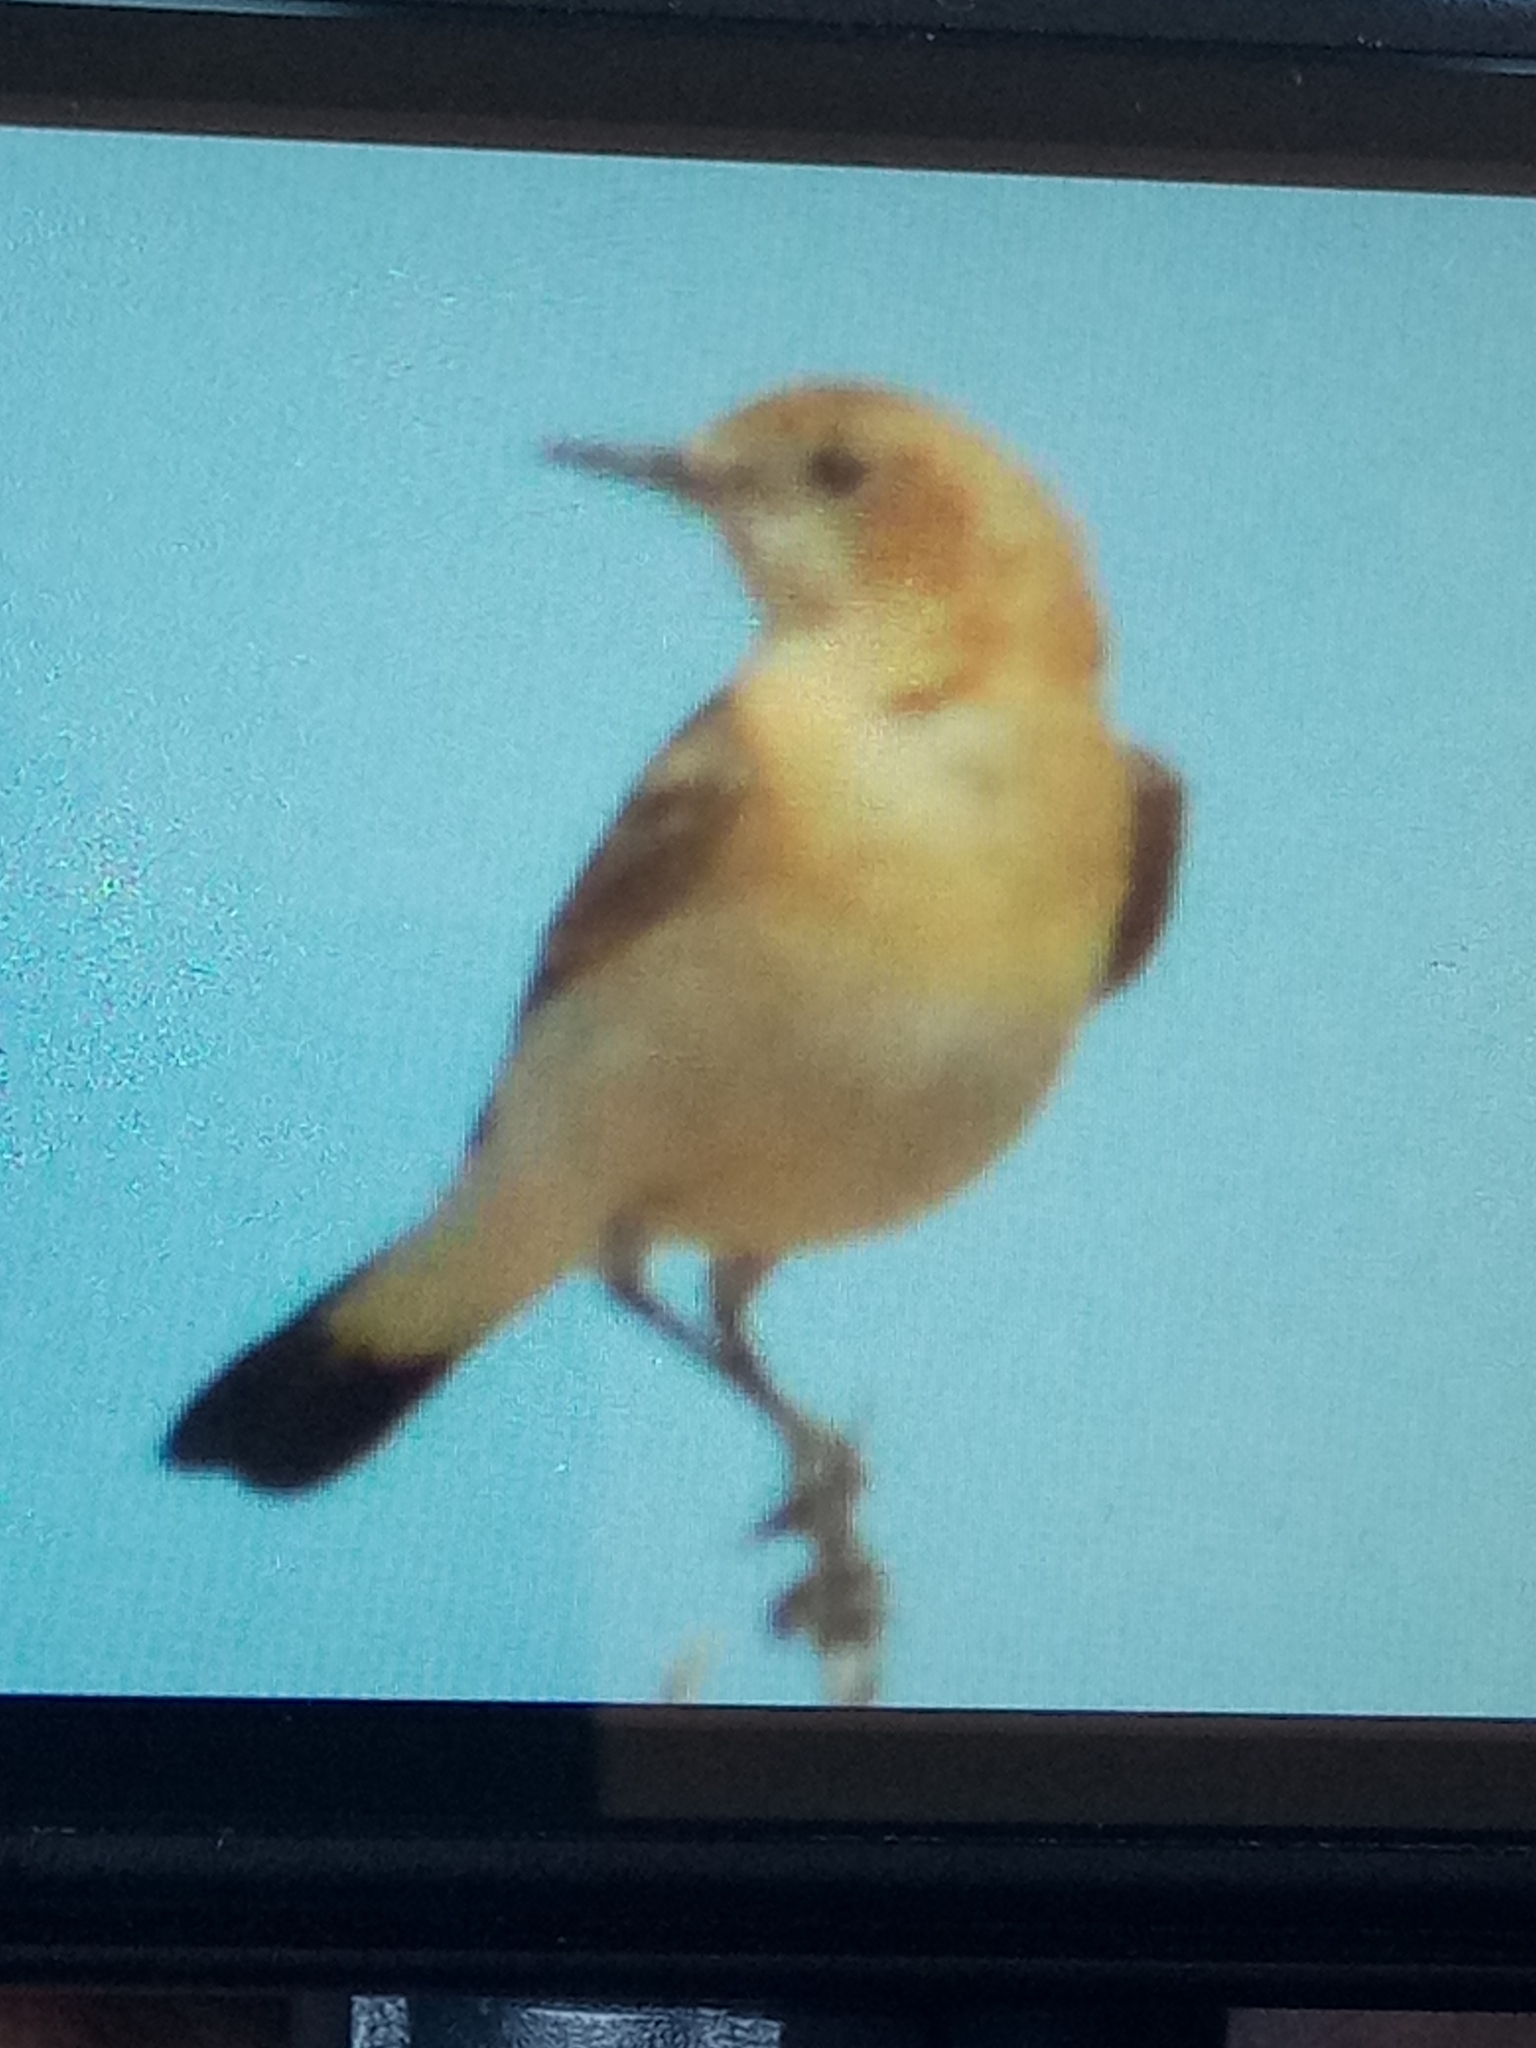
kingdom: Animalia
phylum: Chordata
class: Aves
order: Passeriformes
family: Muscicapidae
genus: Oenanthe
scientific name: Oenanthe moesta
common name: Red-rumped wheatear
